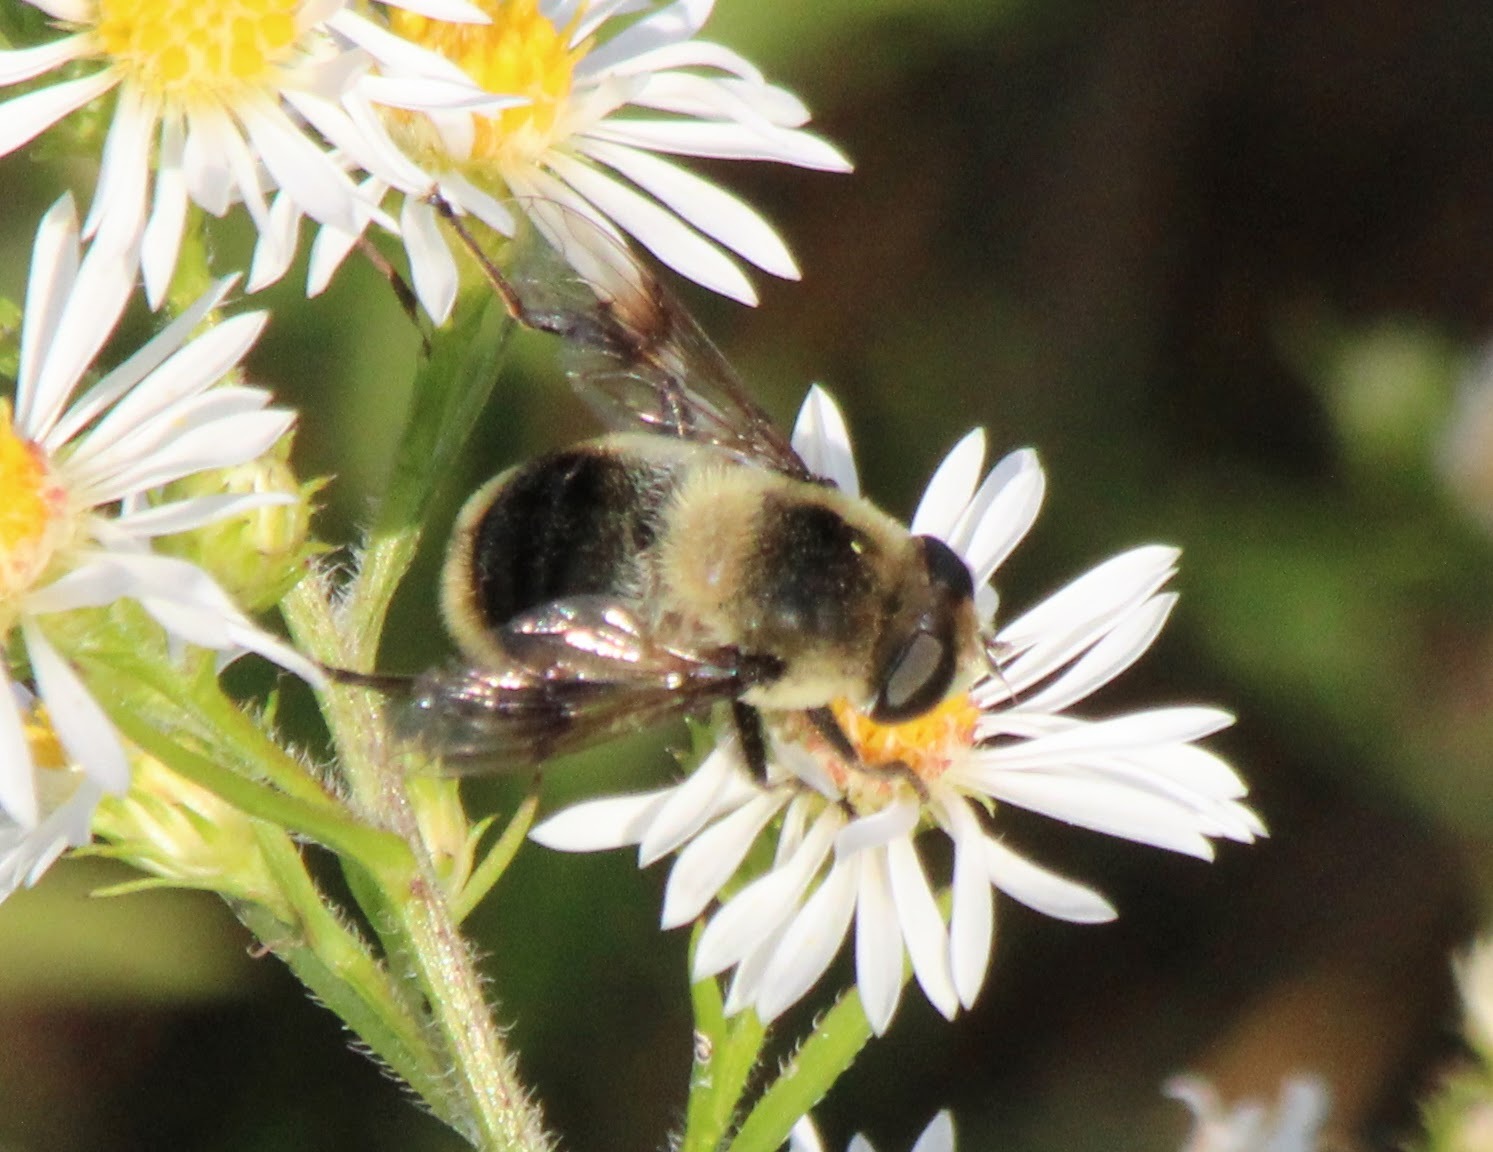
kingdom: Animalia
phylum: Arthropoda
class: Insecta
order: Diptera
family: Syrphidae
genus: Eristalis
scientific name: Eristalis anthophorina
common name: Orange-spotted drone fly
